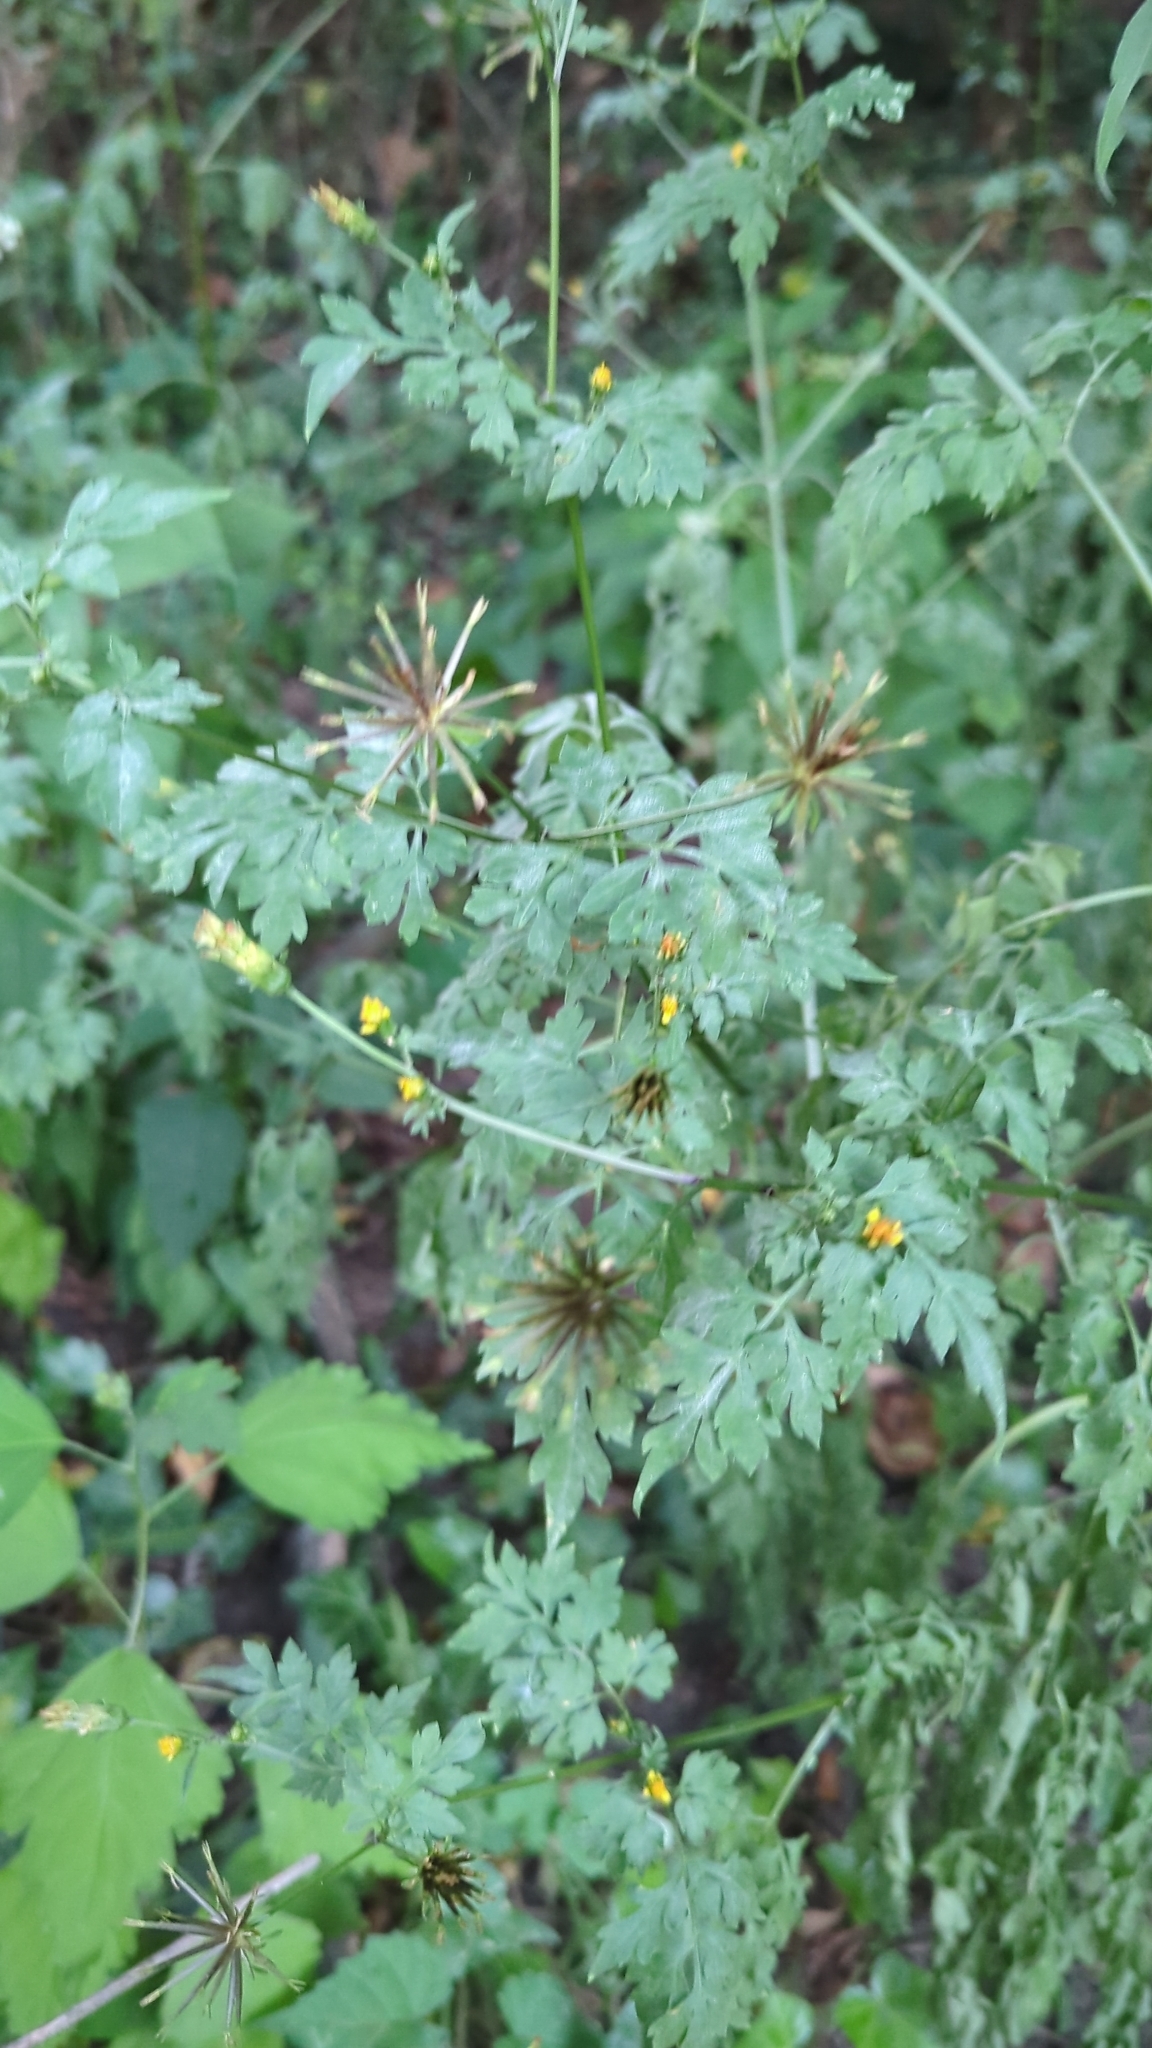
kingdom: Plantae
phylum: Tracheophyta
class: Magnoliopsida
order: Asterales
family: Asteraceae
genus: Bidens
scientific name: Bidens bipinnata
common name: Spanish-needles
